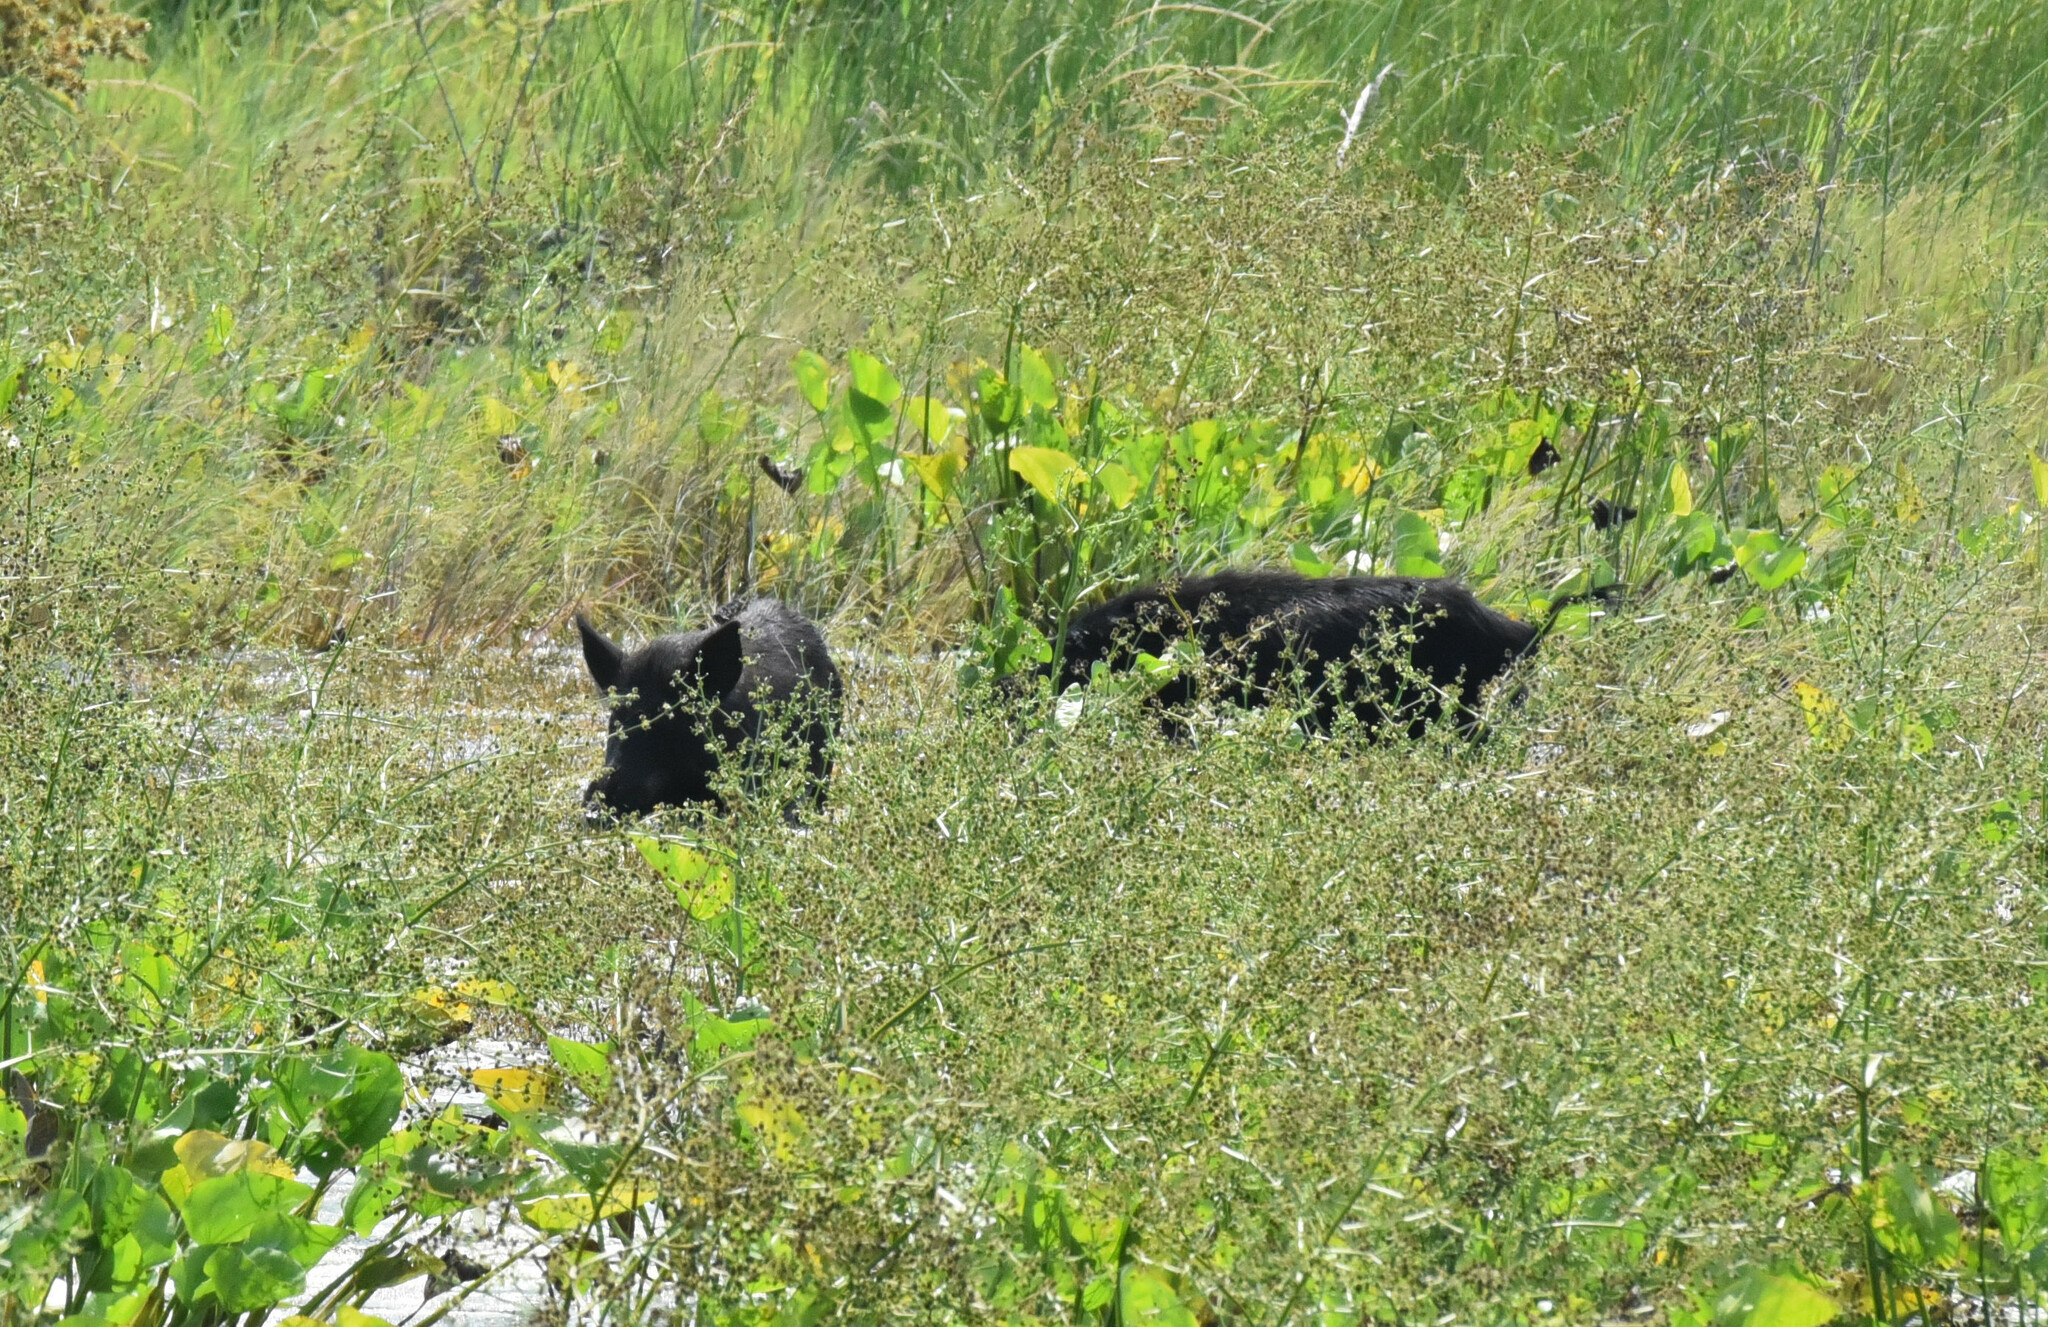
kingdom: Animalia
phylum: Chordata
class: Mammalia
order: Artiodactyla
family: Suidae
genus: Sus
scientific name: Sus scrofa
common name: Wild boar
